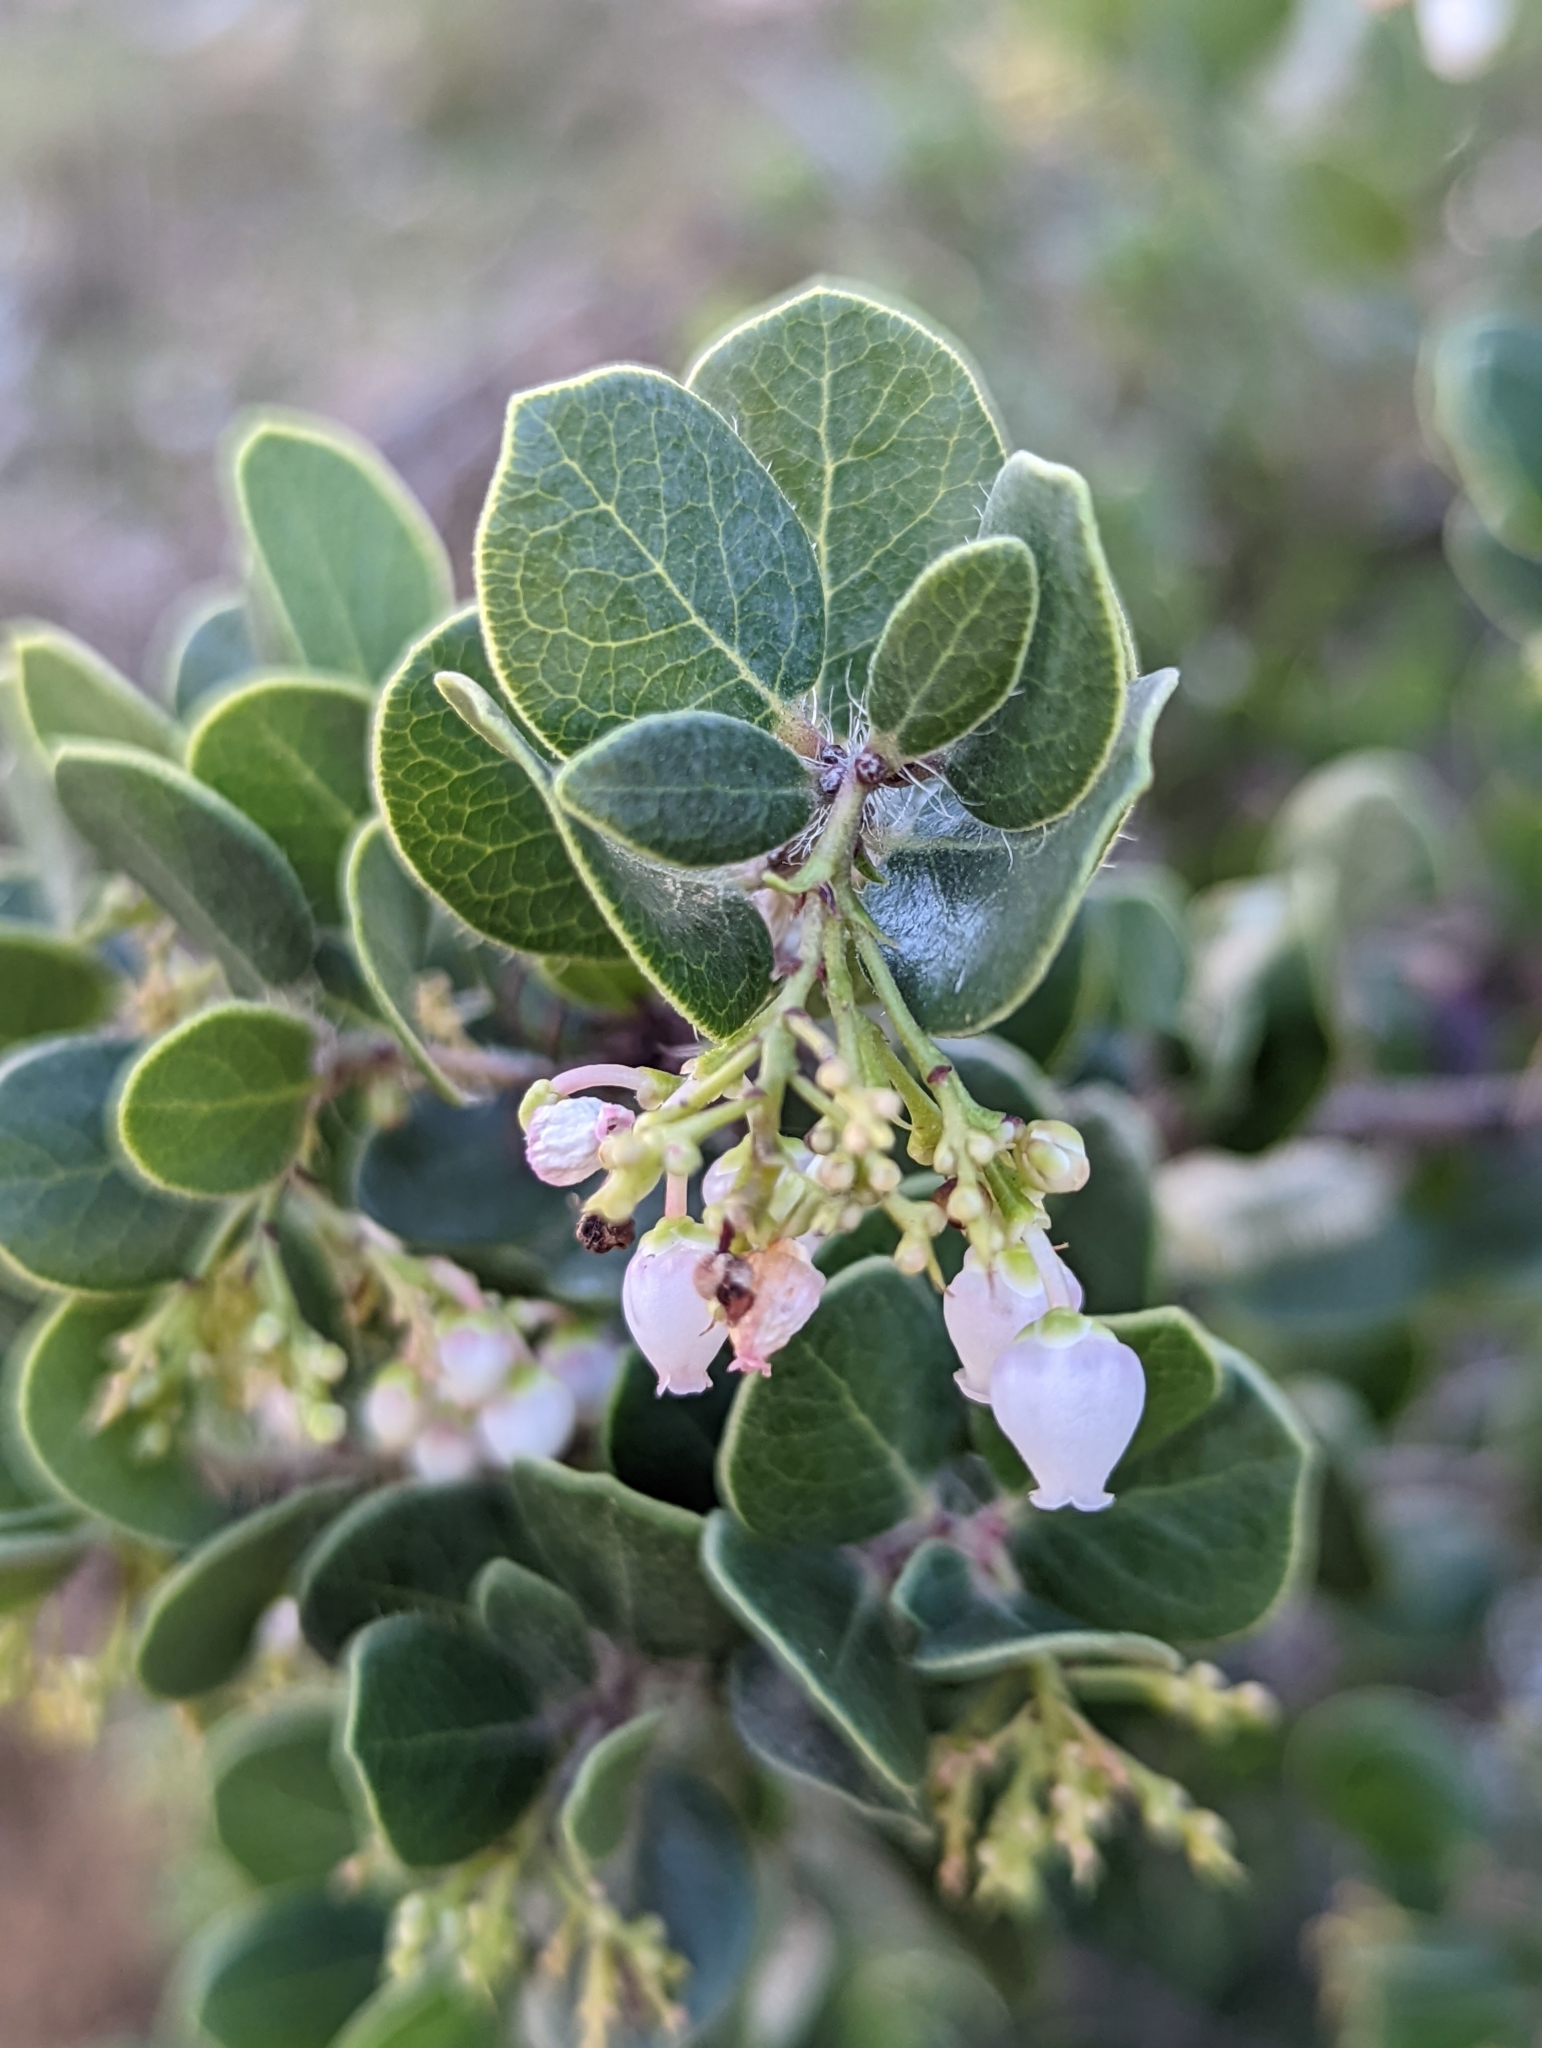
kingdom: Plantae
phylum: Tracheophyta
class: Magnoliopsida
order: Ericales
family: Ericaceae
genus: Arctostaphylos
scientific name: Arctostaphylos nummularia
